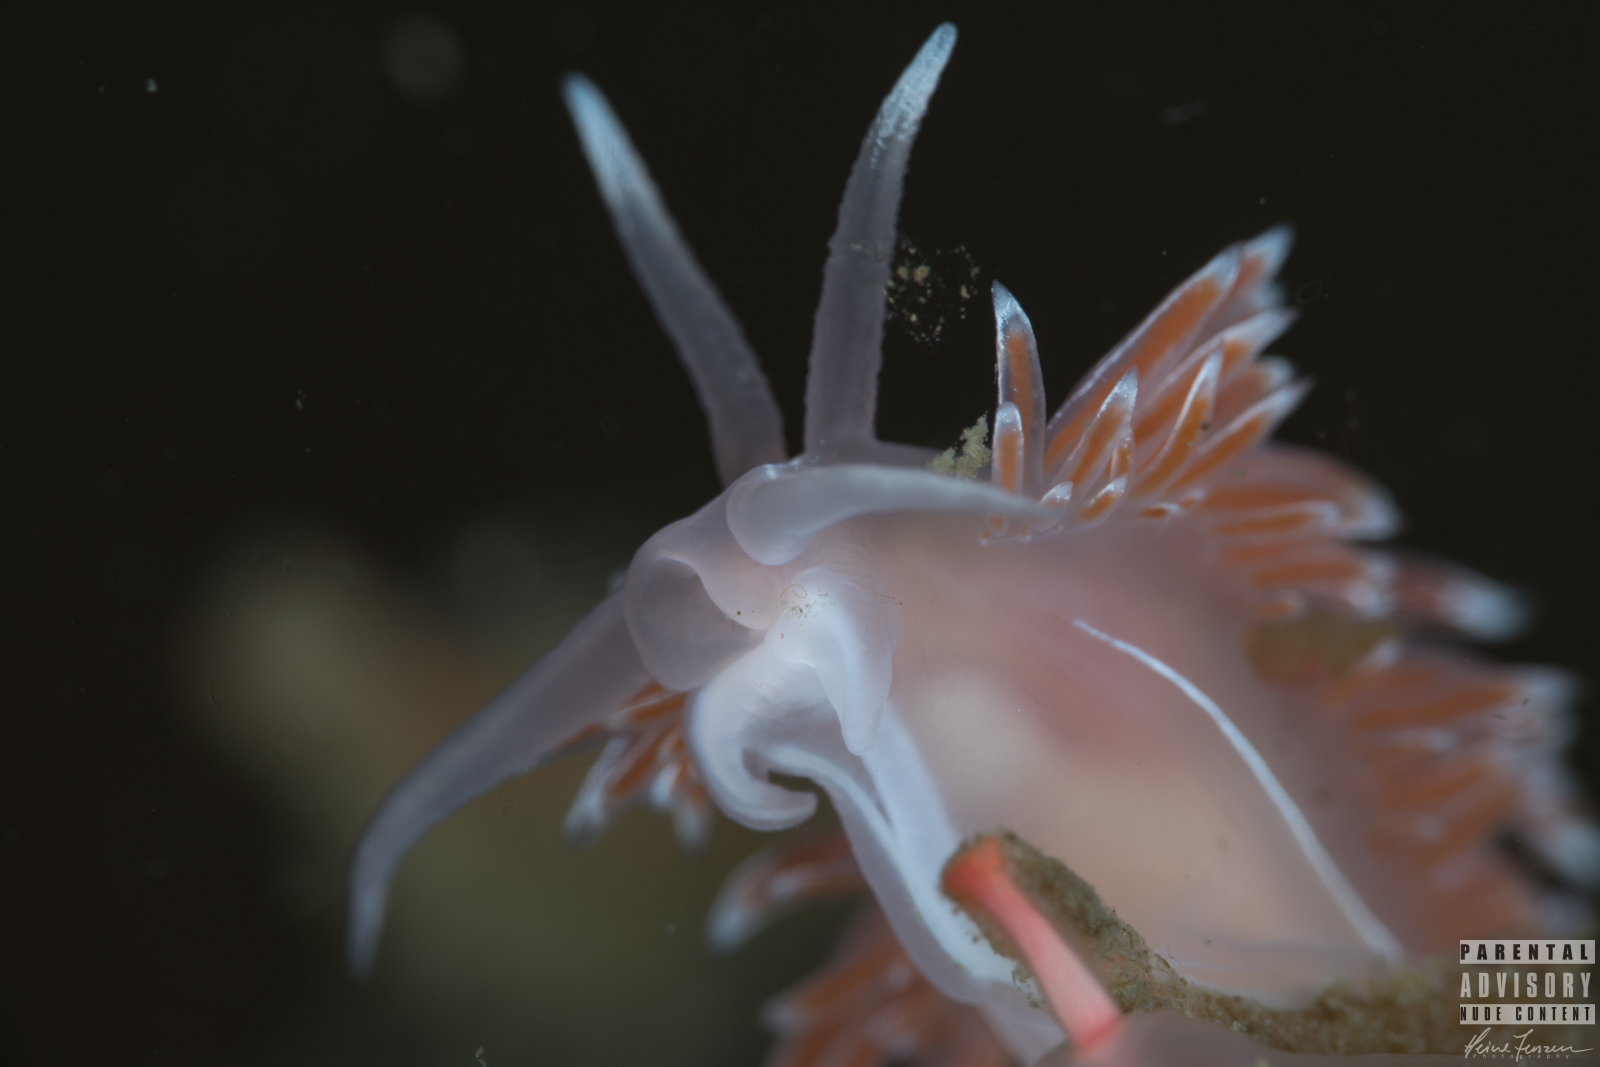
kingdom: Animalia
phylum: Mollusca
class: Gastropoda
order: Nudibranchia
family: Coryphellidae
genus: Coryphella
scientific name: Coryphella lineata
